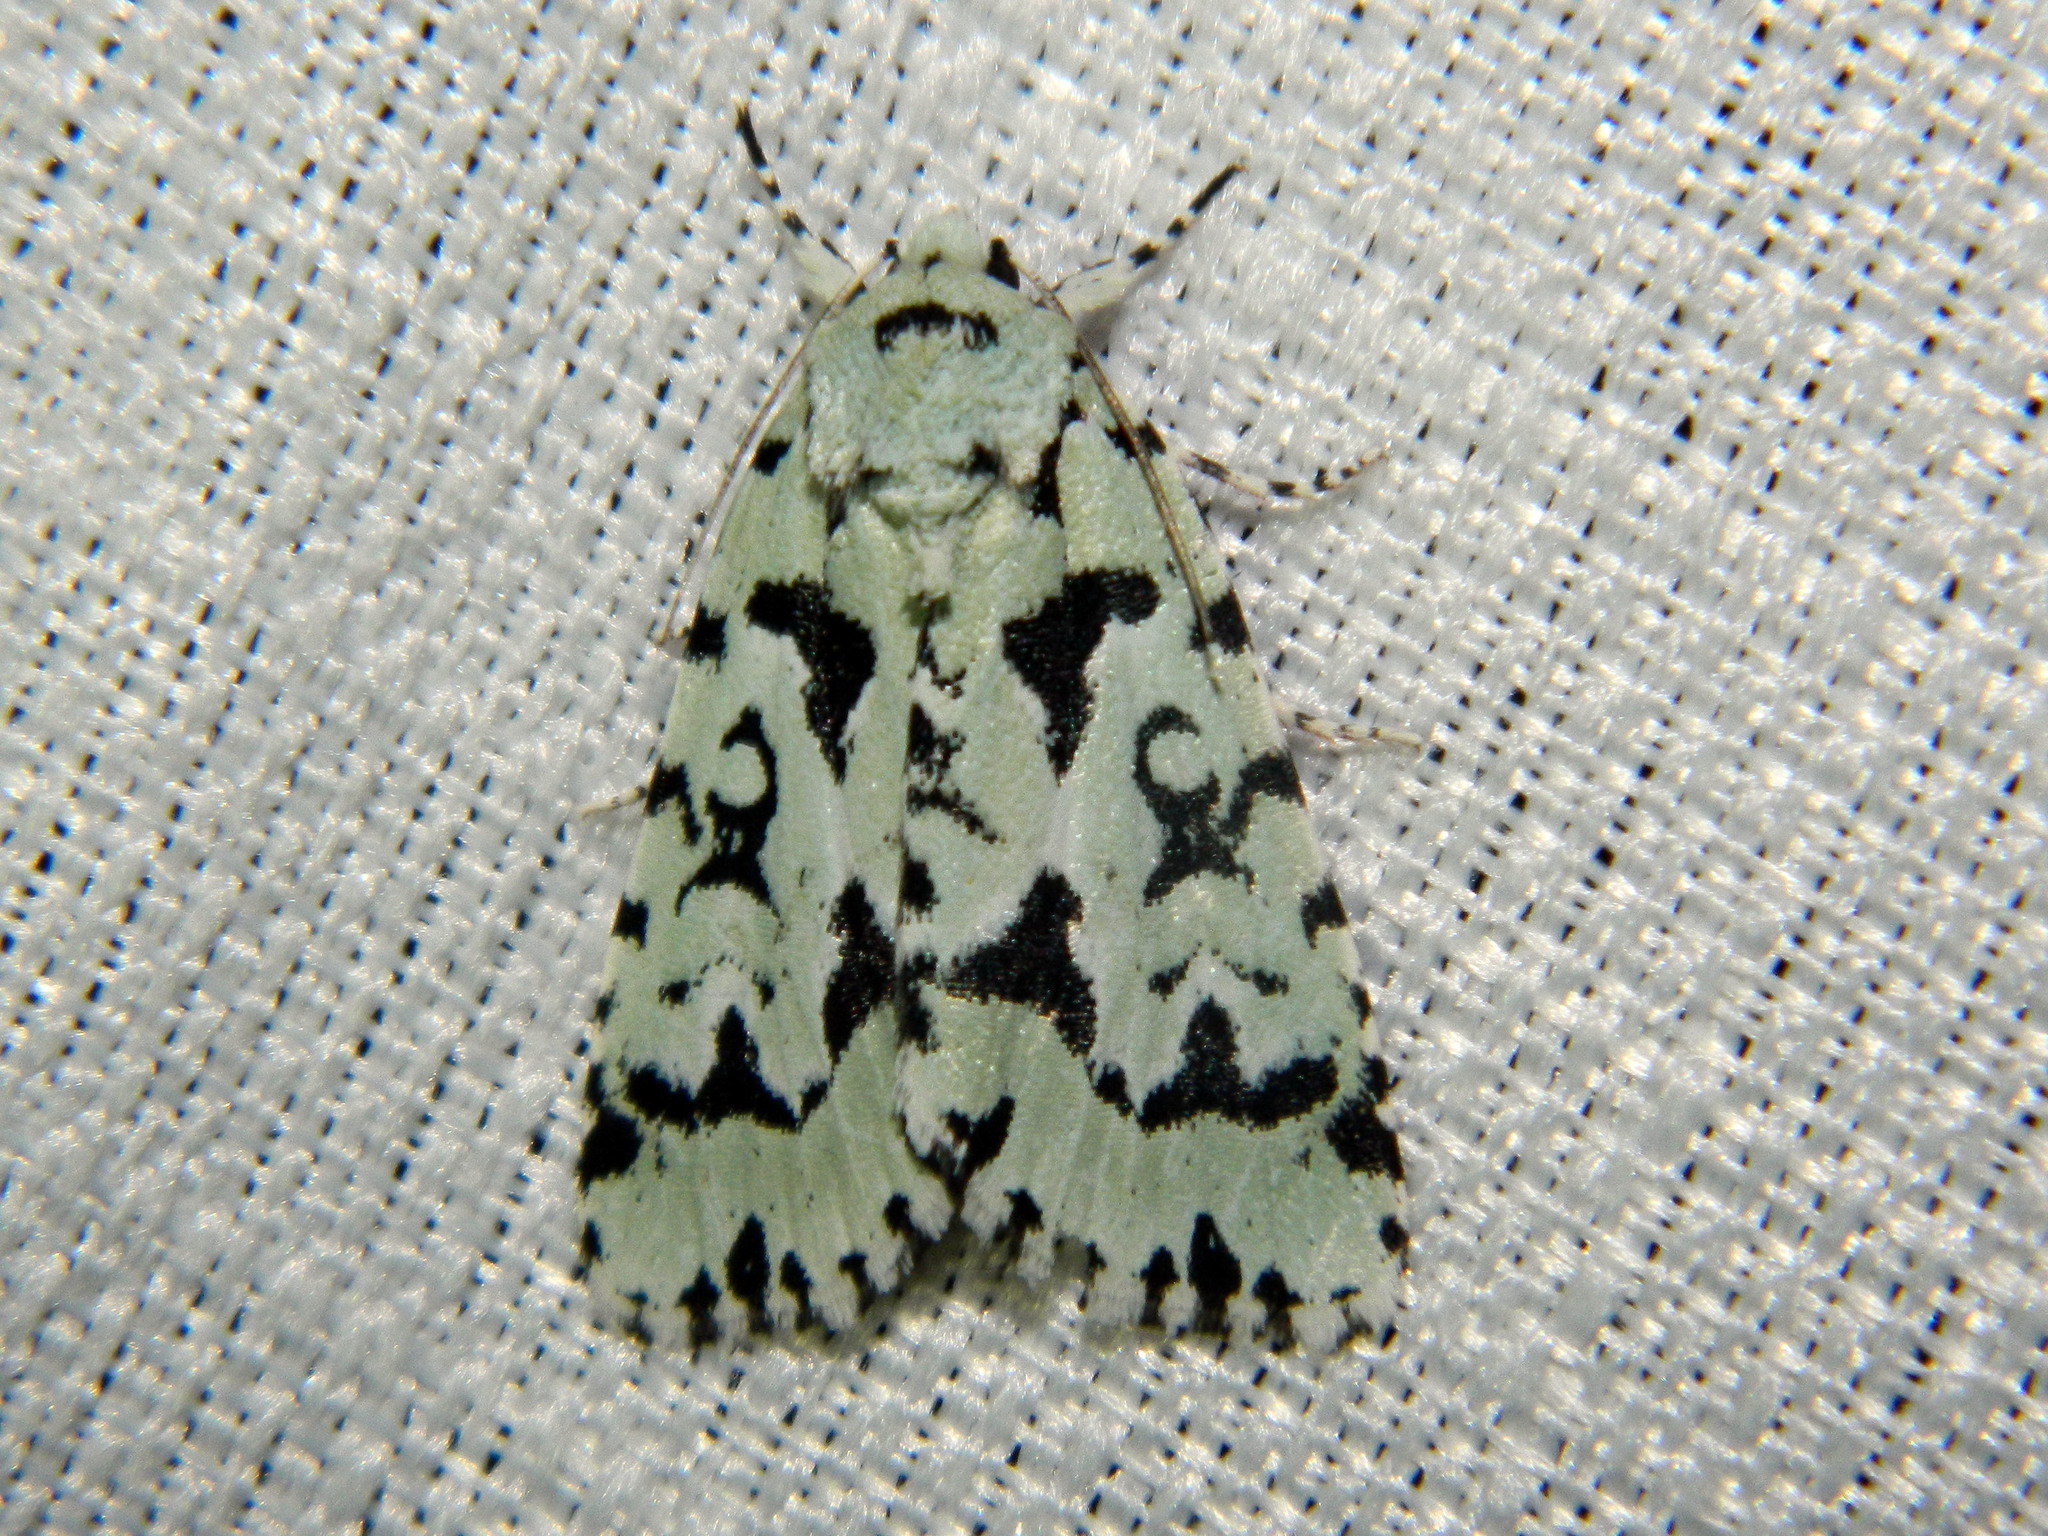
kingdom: Animalia
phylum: Arthropoda
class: Insecta
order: Lepidoptera
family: Noctuidae
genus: Acronicta
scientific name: Acronicta fallax
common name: Green marvel
